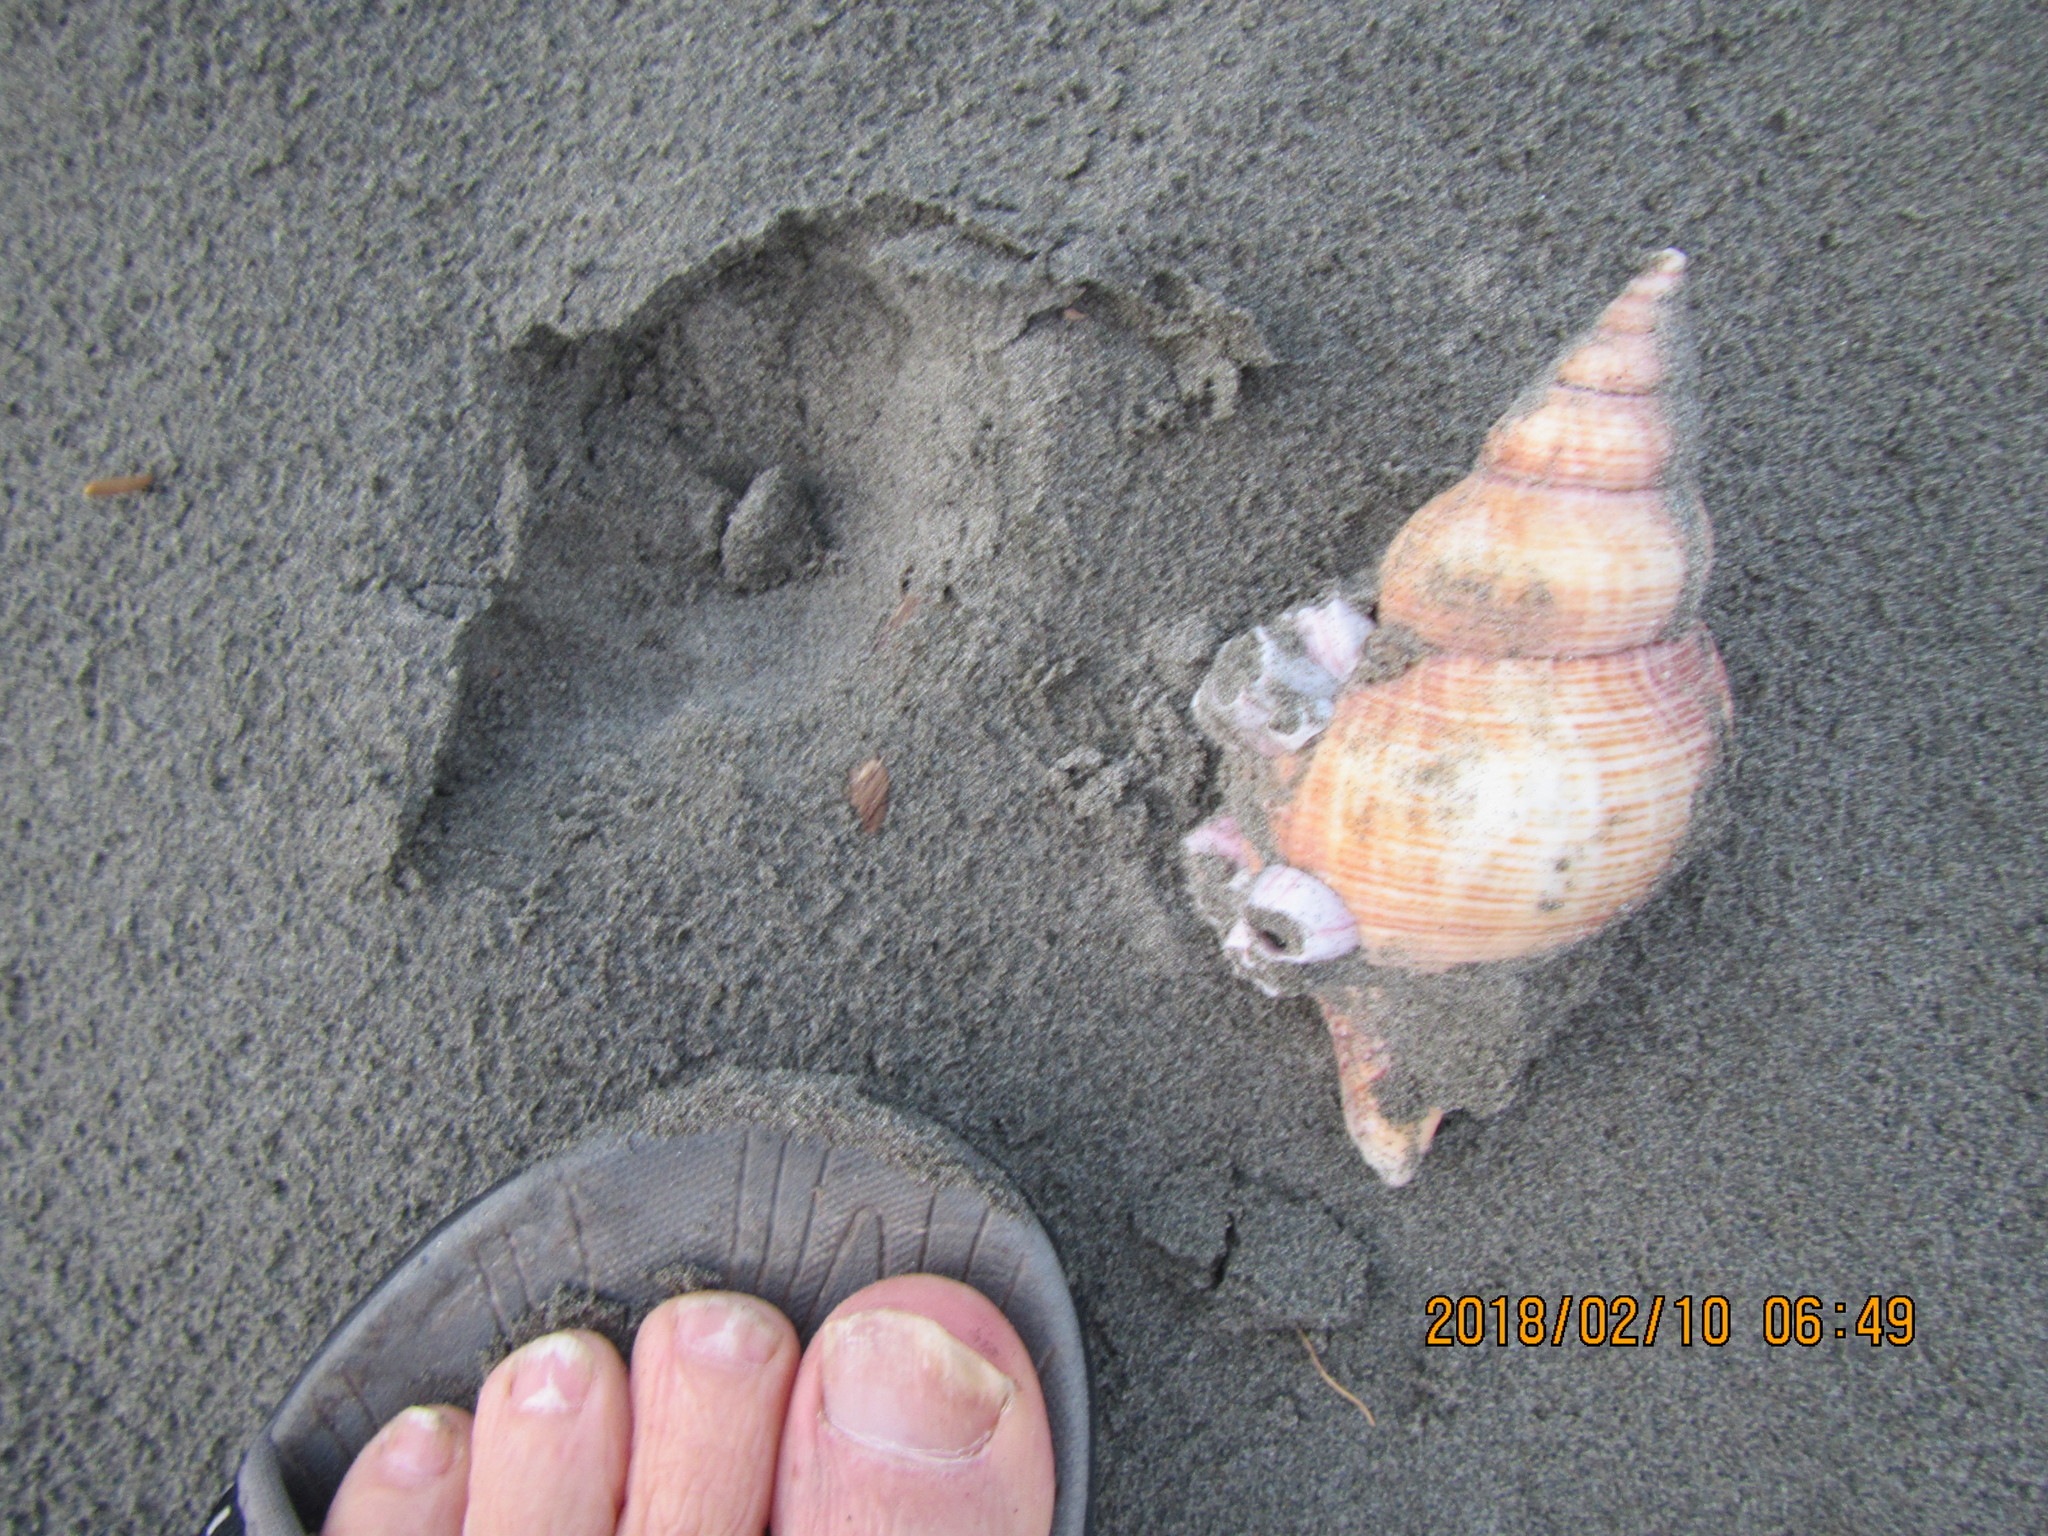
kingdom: Animalia
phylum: Arthropoda
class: Maxillopoda
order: Sessilia
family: Balanidae
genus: Notomegabalanus
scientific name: Notomegabalanus decorus
